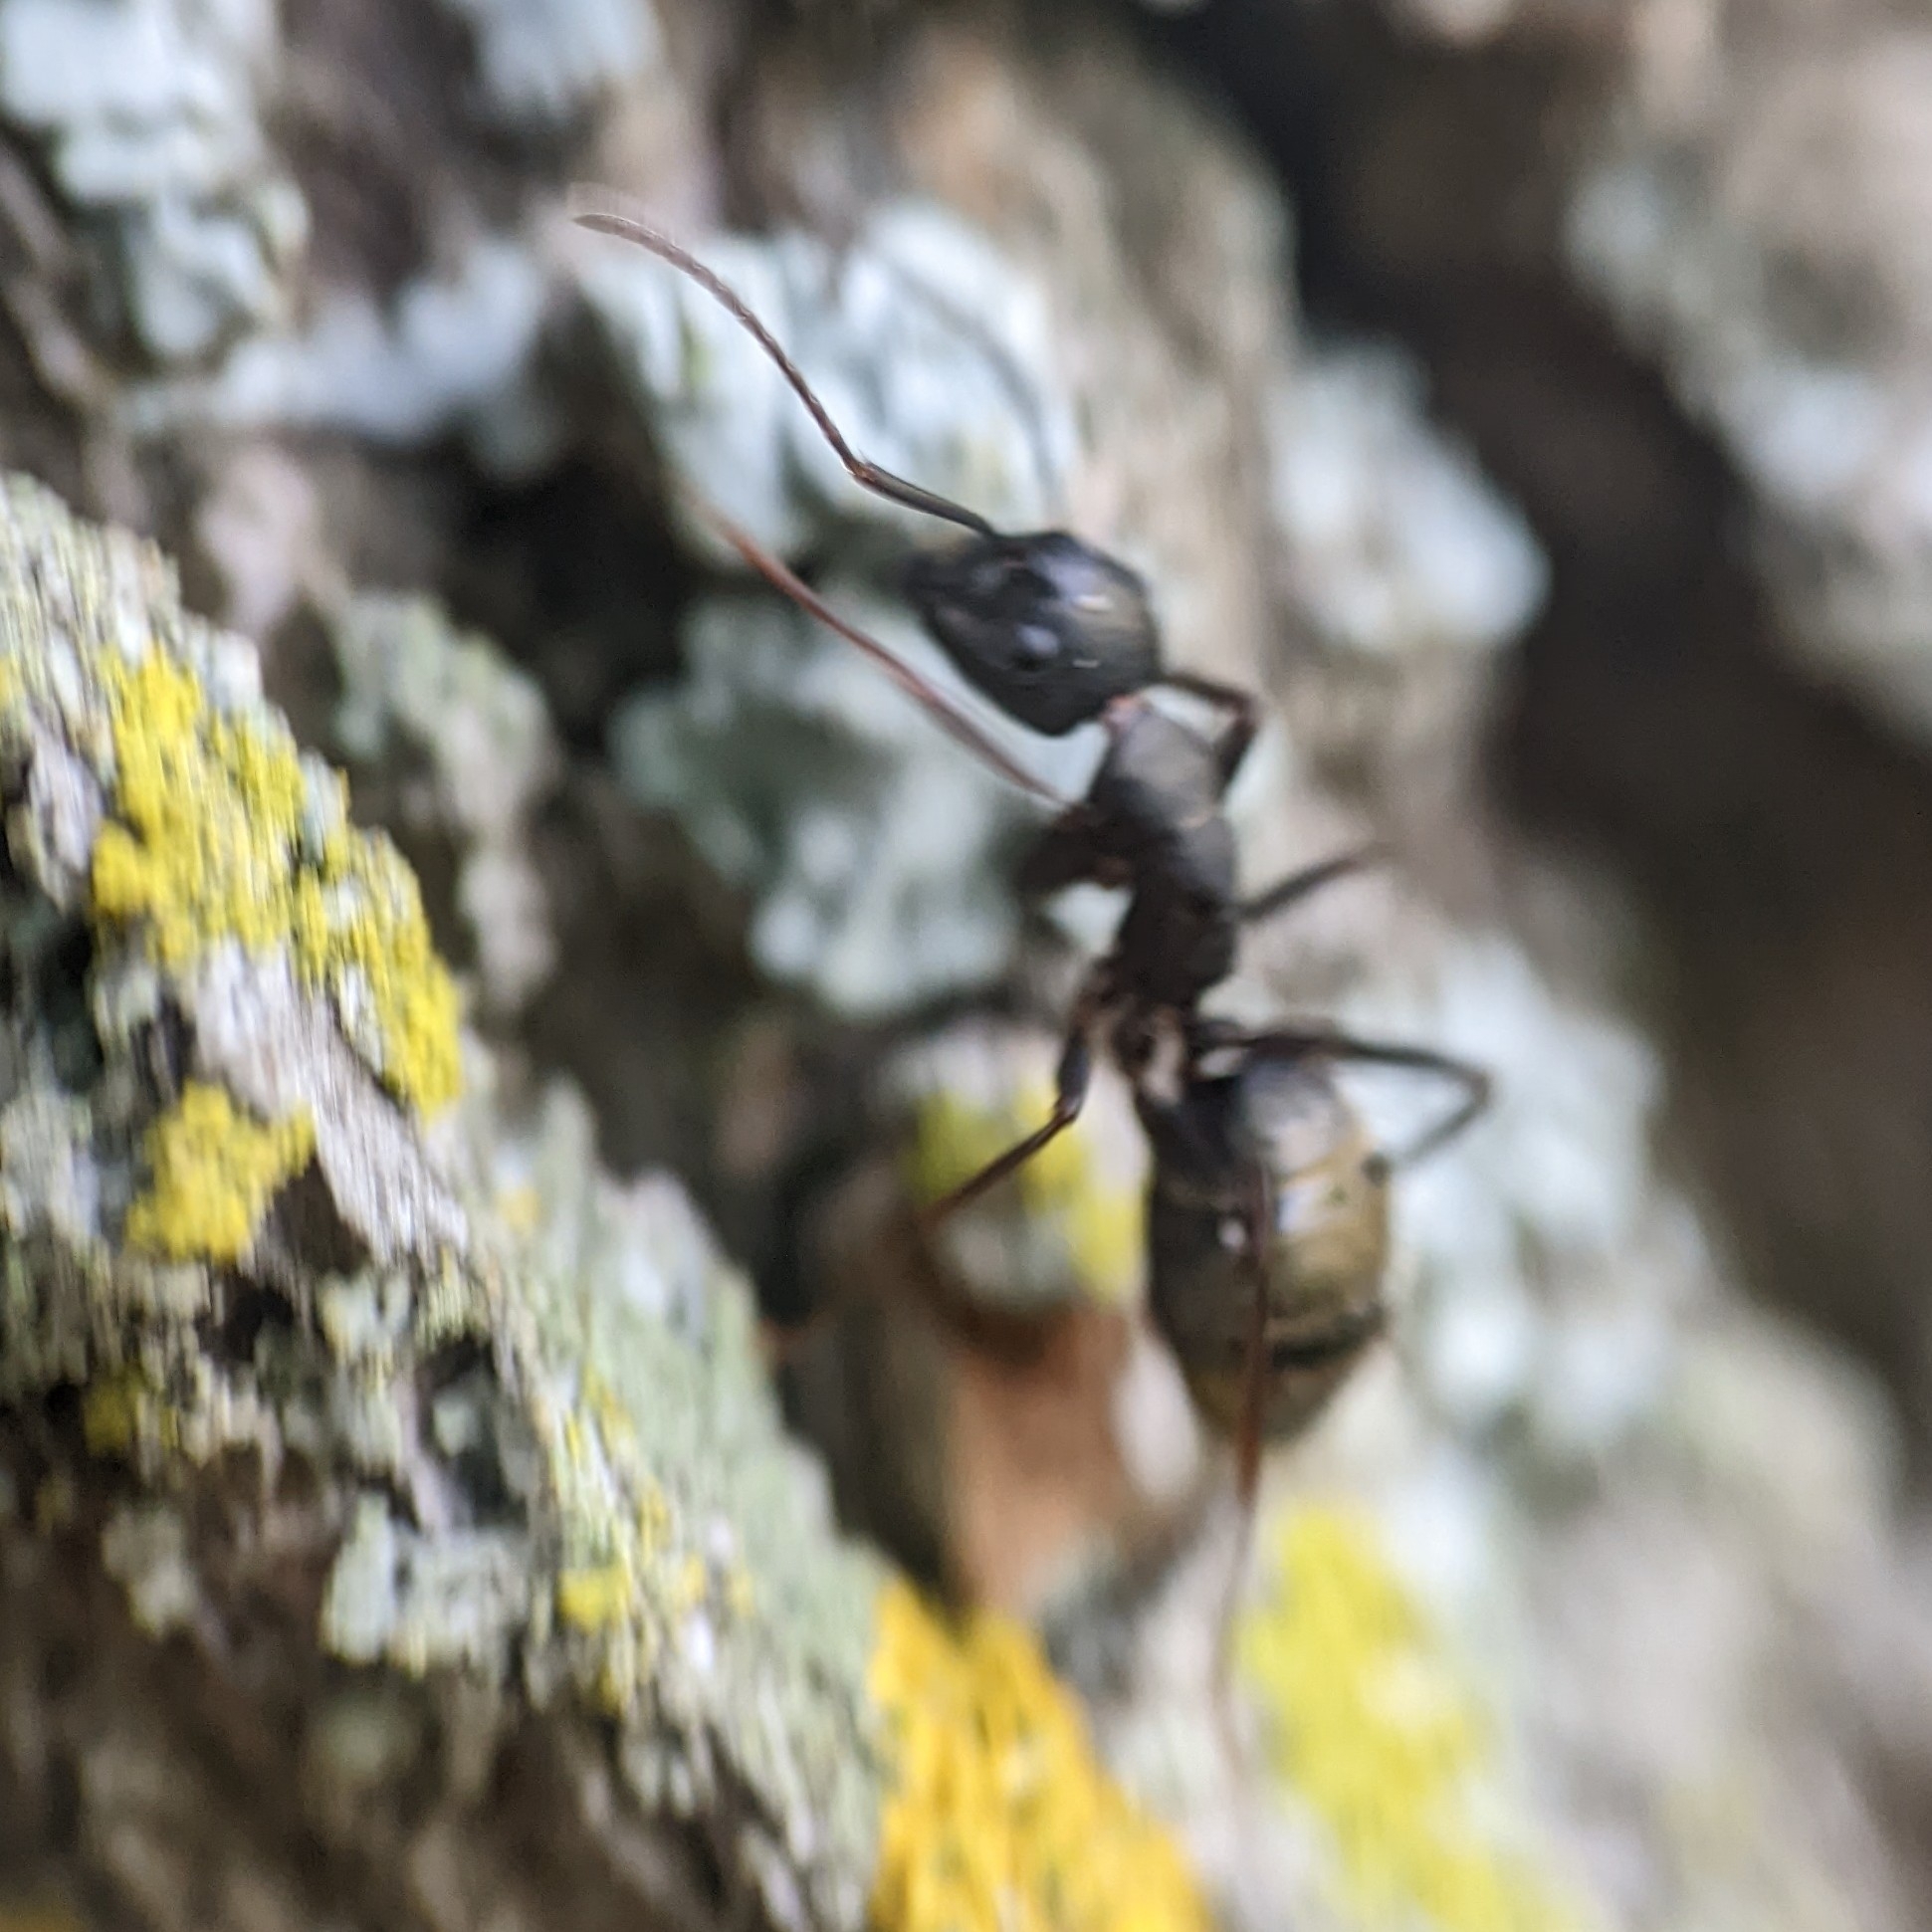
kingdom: Animalia
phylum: Arthropoda
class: Insecta
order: Hymenoptera
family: Formicidae
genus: Camponotus
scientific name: Camponotus pennsylvanicus
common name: Black carpenter ant
